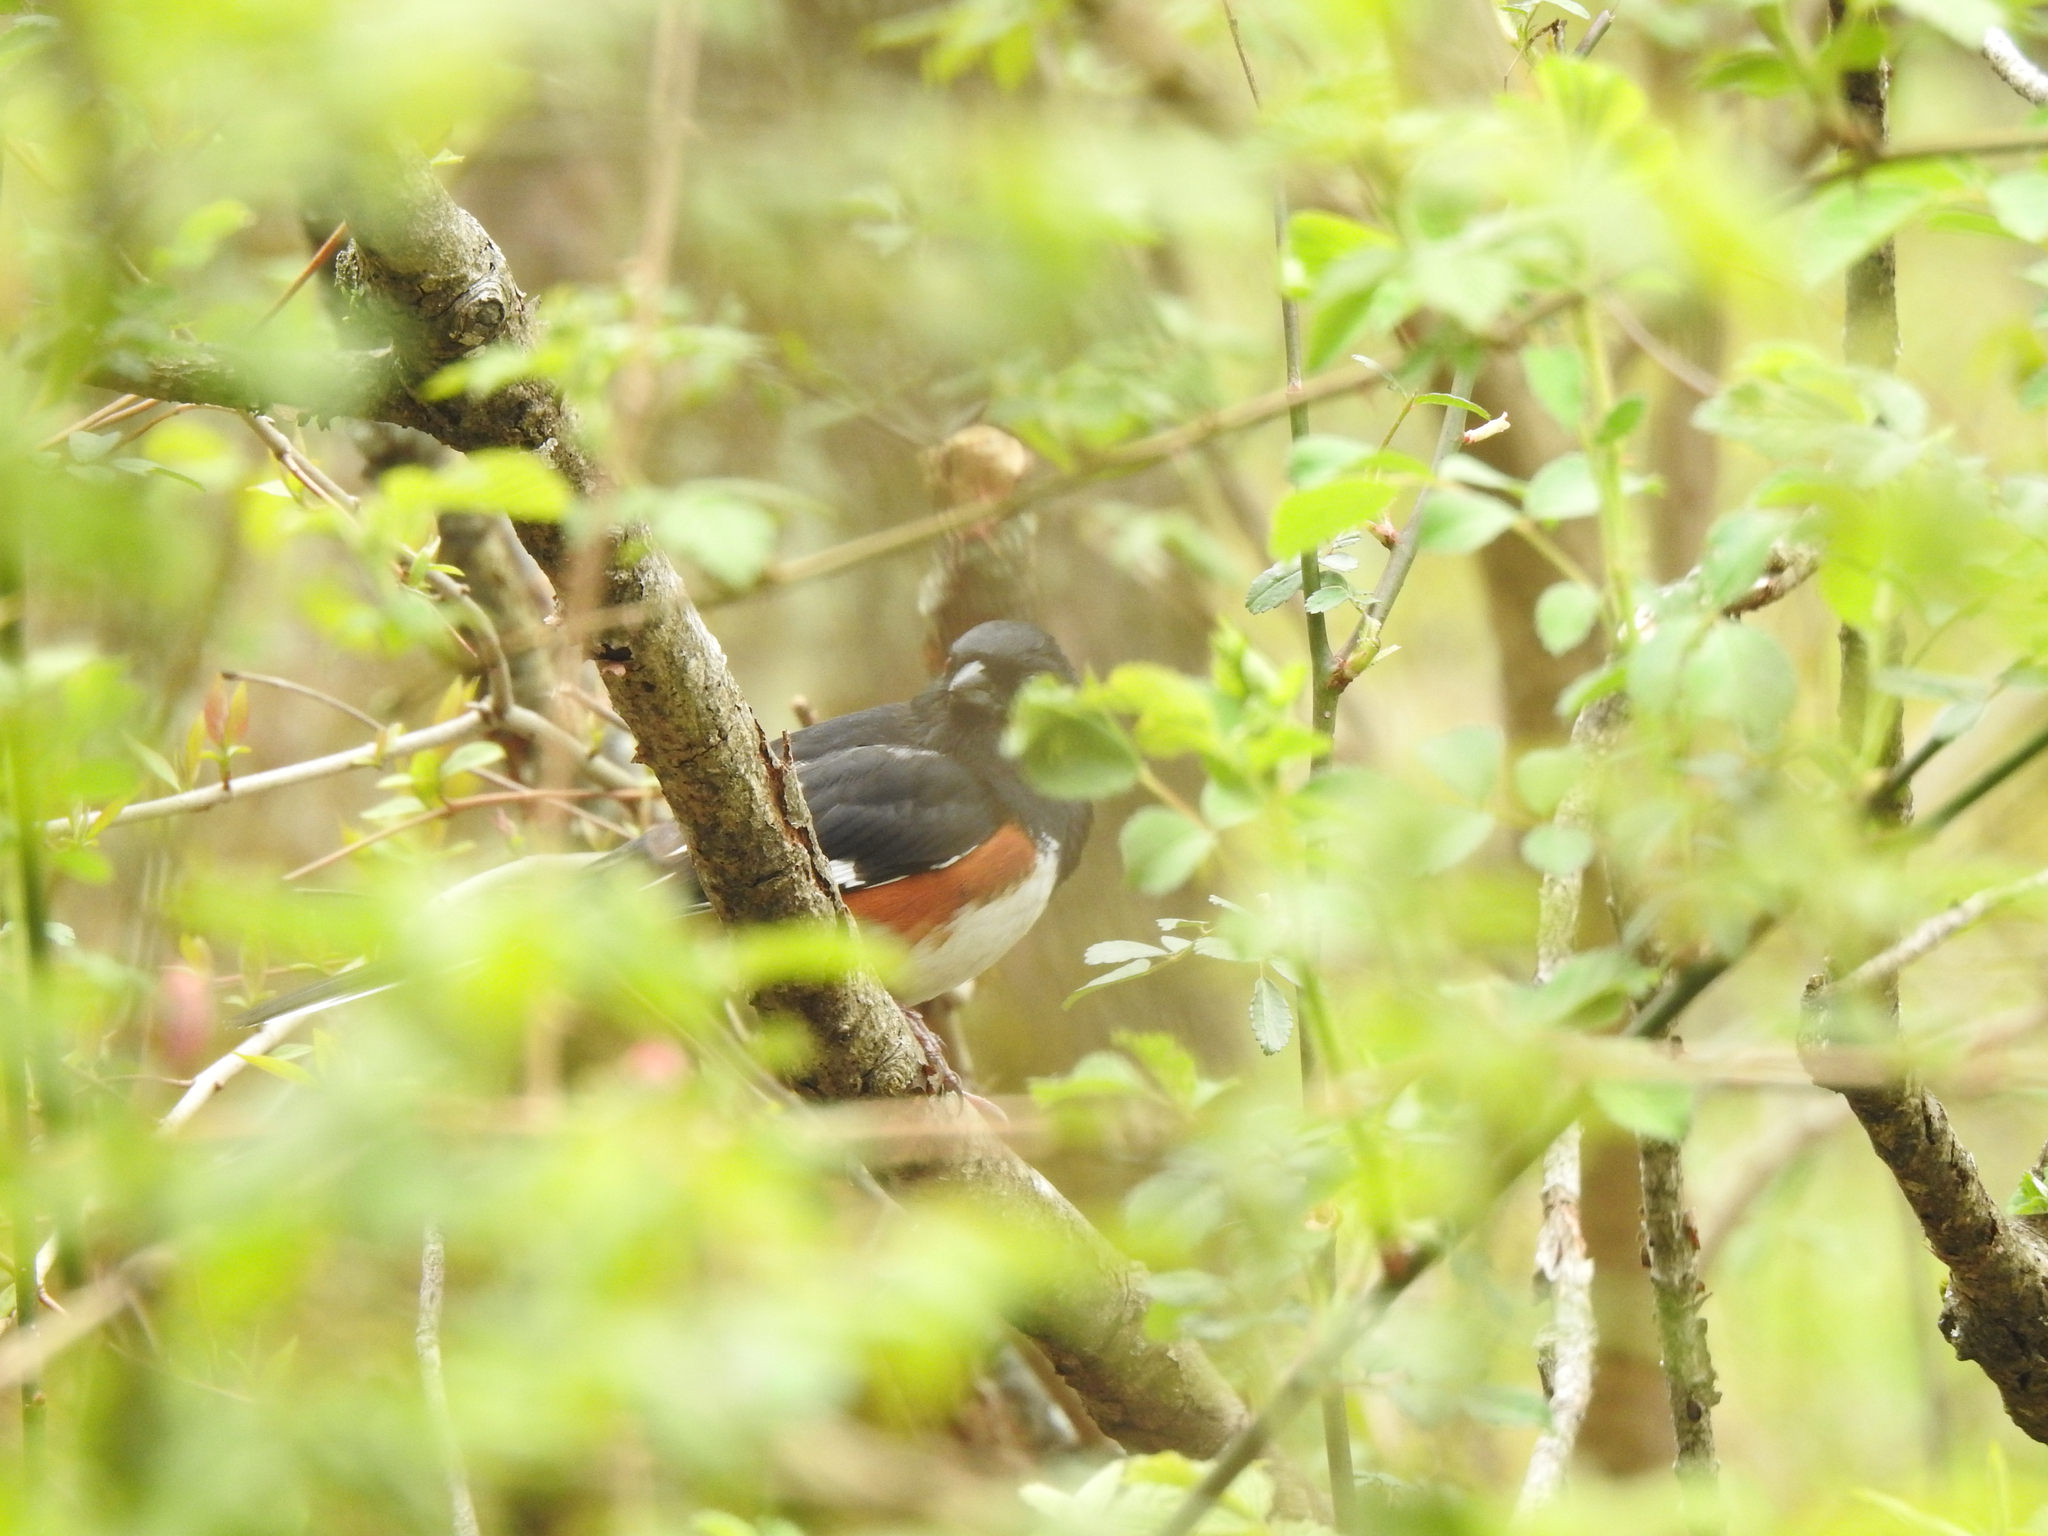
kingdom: Animalia
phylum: Chordata
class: Aves
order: Passeriformes
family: Passerellidae
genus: Pipilo
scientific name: Pipilo erythrophthalmus
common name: Eastern towhee
